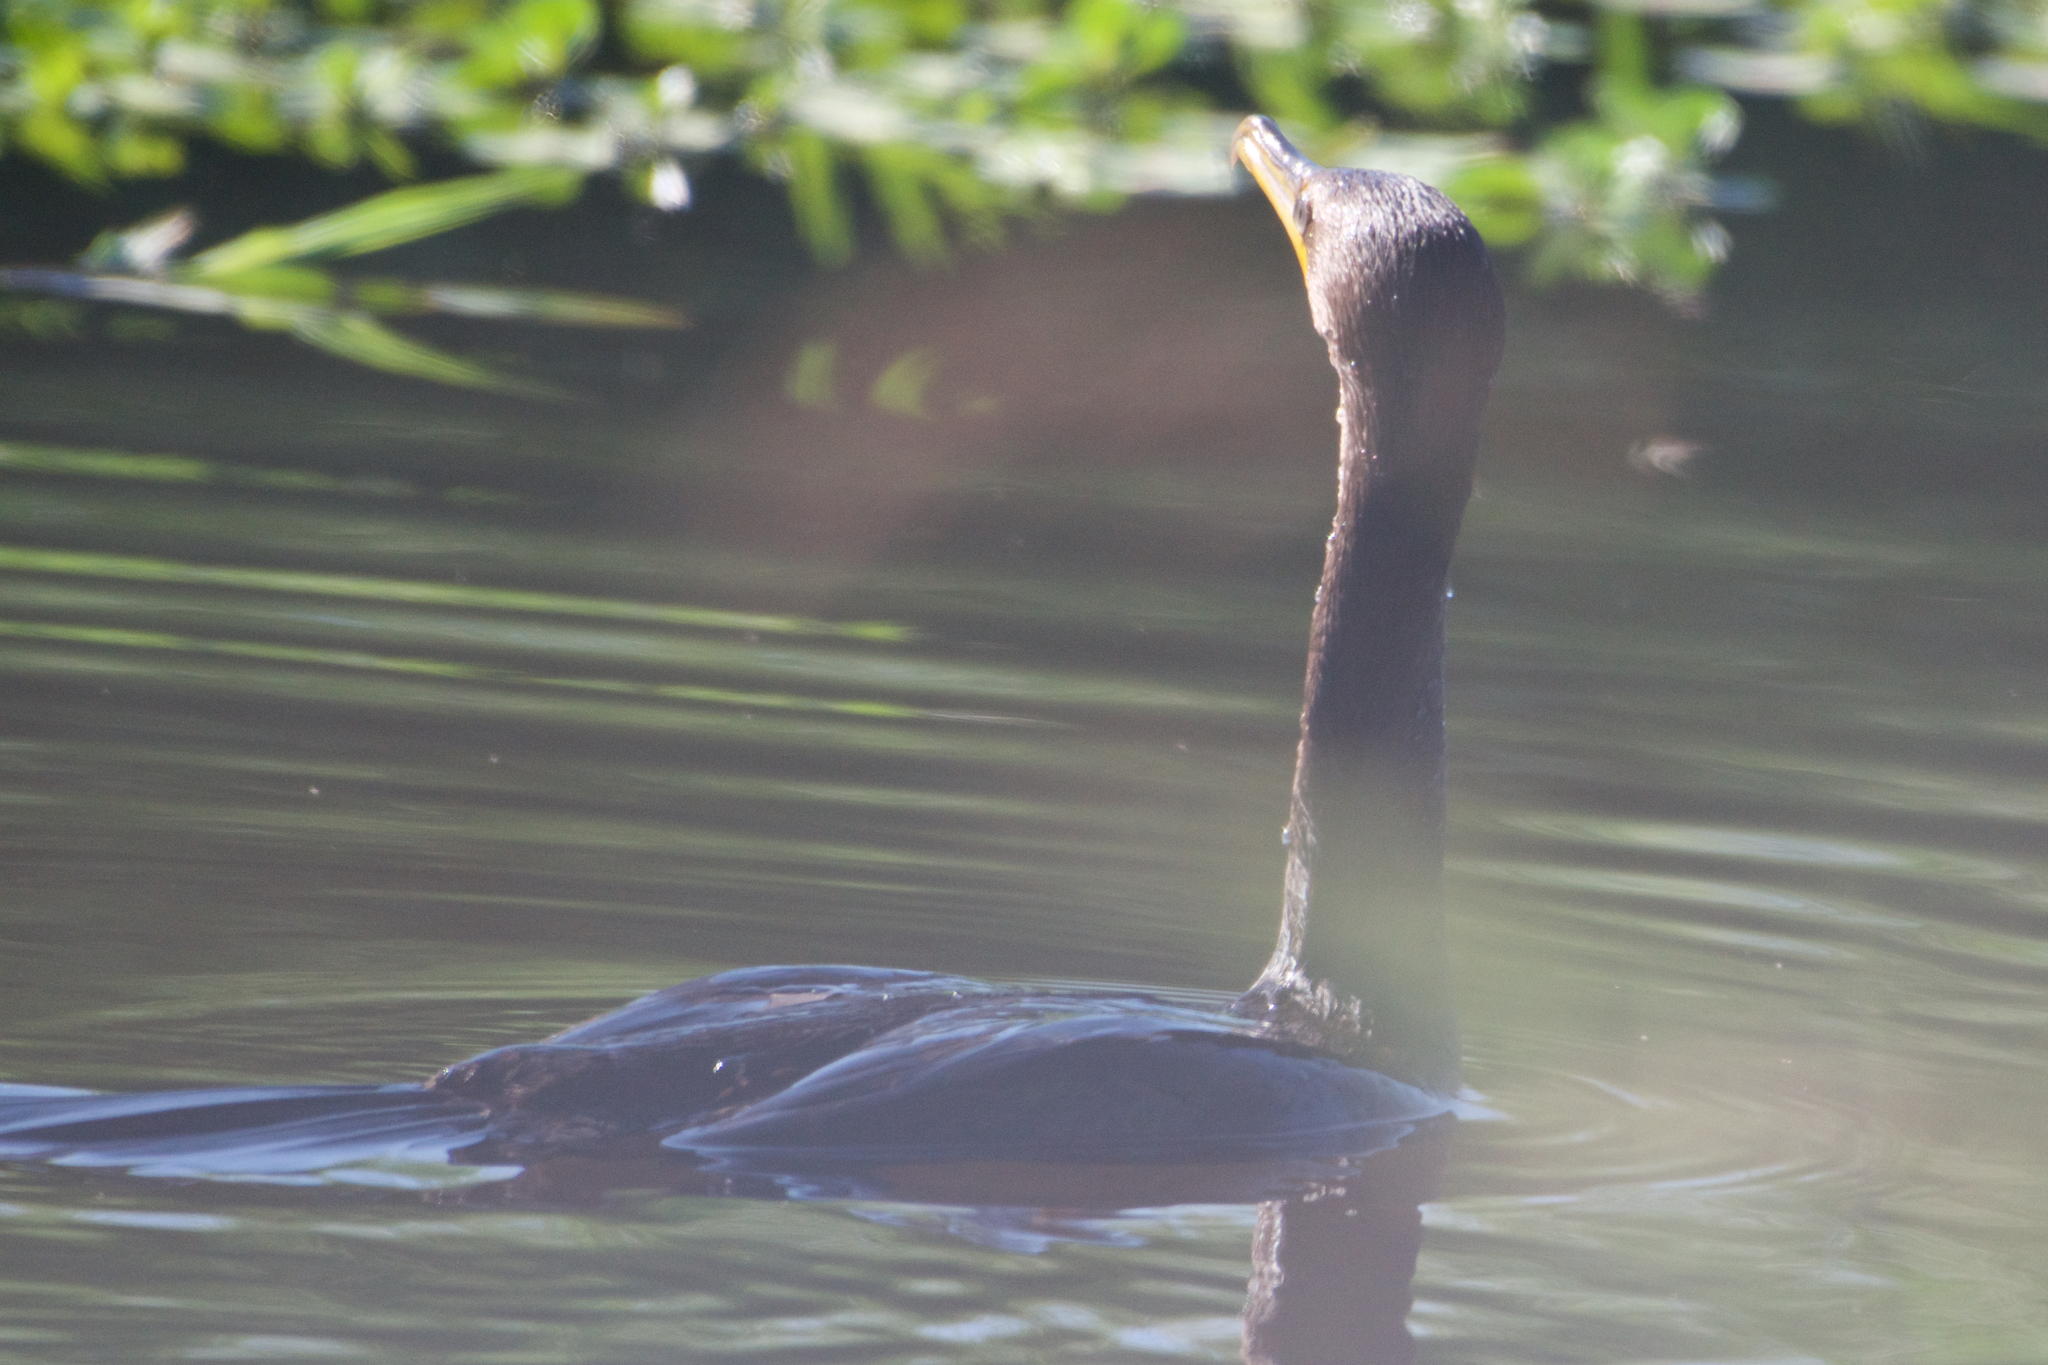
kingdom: Animalia
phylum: Chordata
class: Aves
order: Suliformes
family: Phalacrocoracidae
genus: Phalacrocorax
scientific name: Phalacrocorax auritus
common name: Double-crested cormorant
